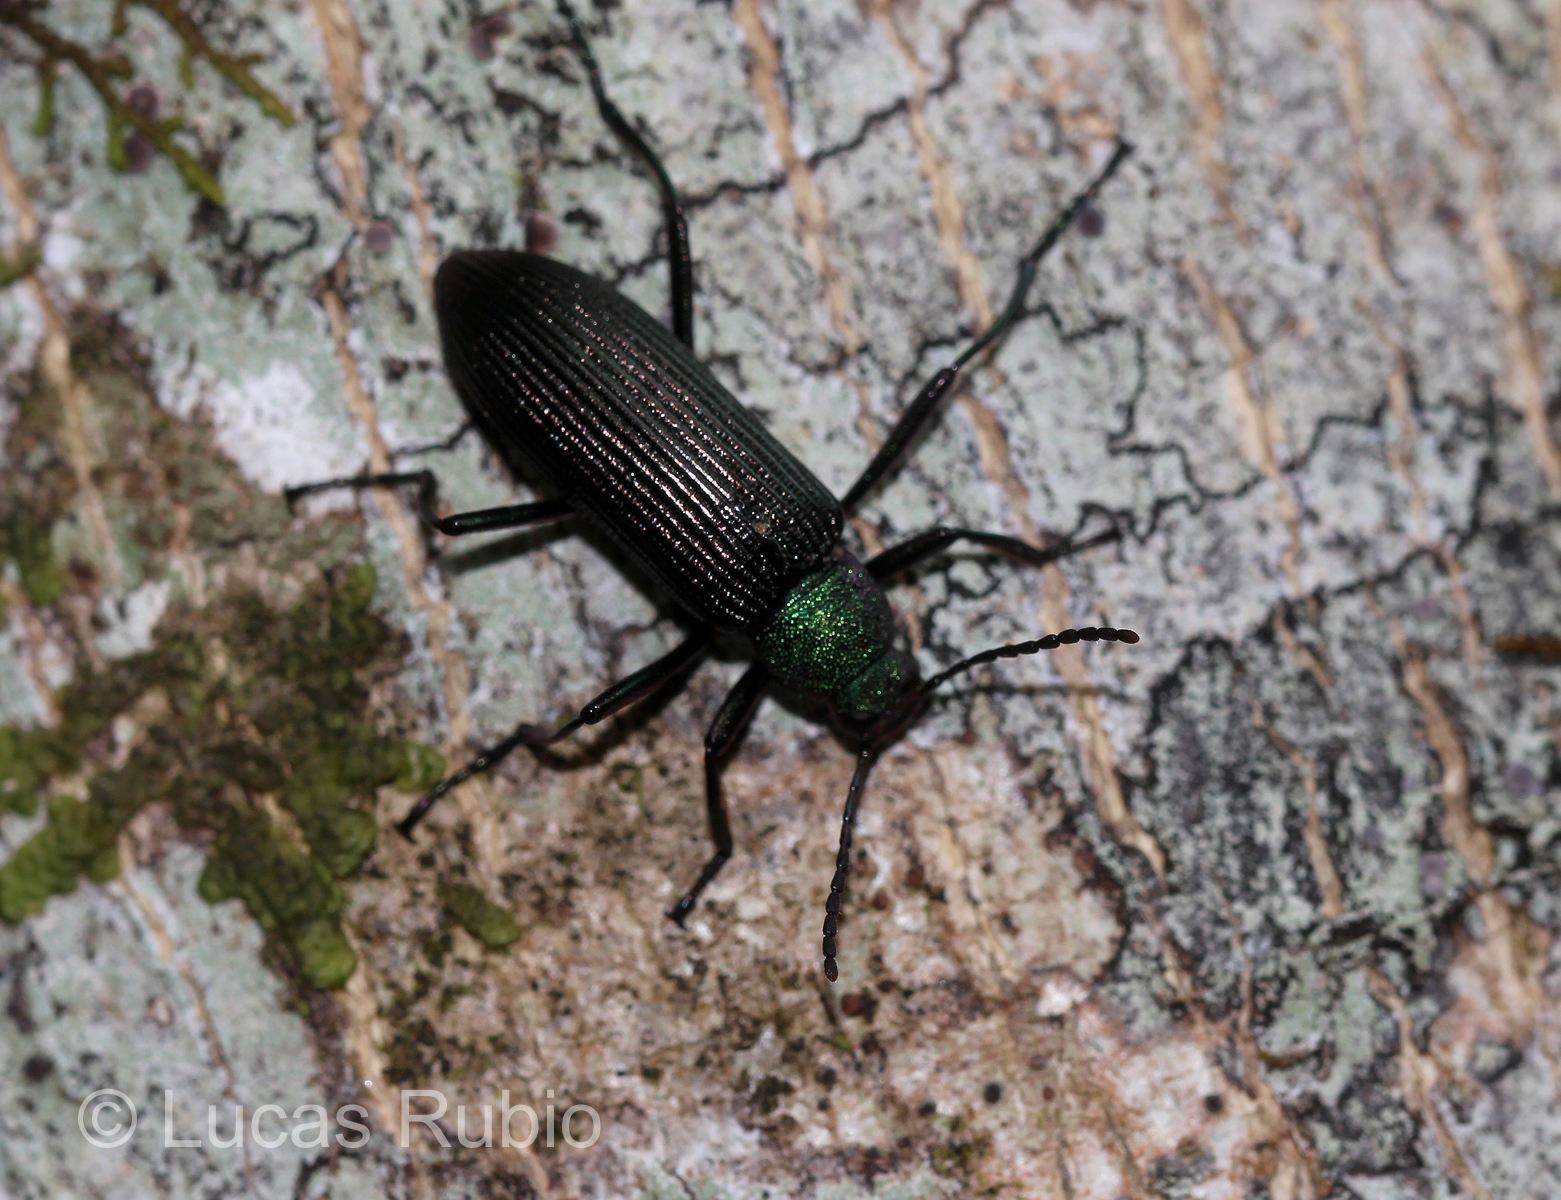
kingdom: Animalia
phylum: Arthropoda
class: Insecta
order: Coleoptera
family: Tenebrionidae
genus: Strongylium
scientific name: Strongylium
